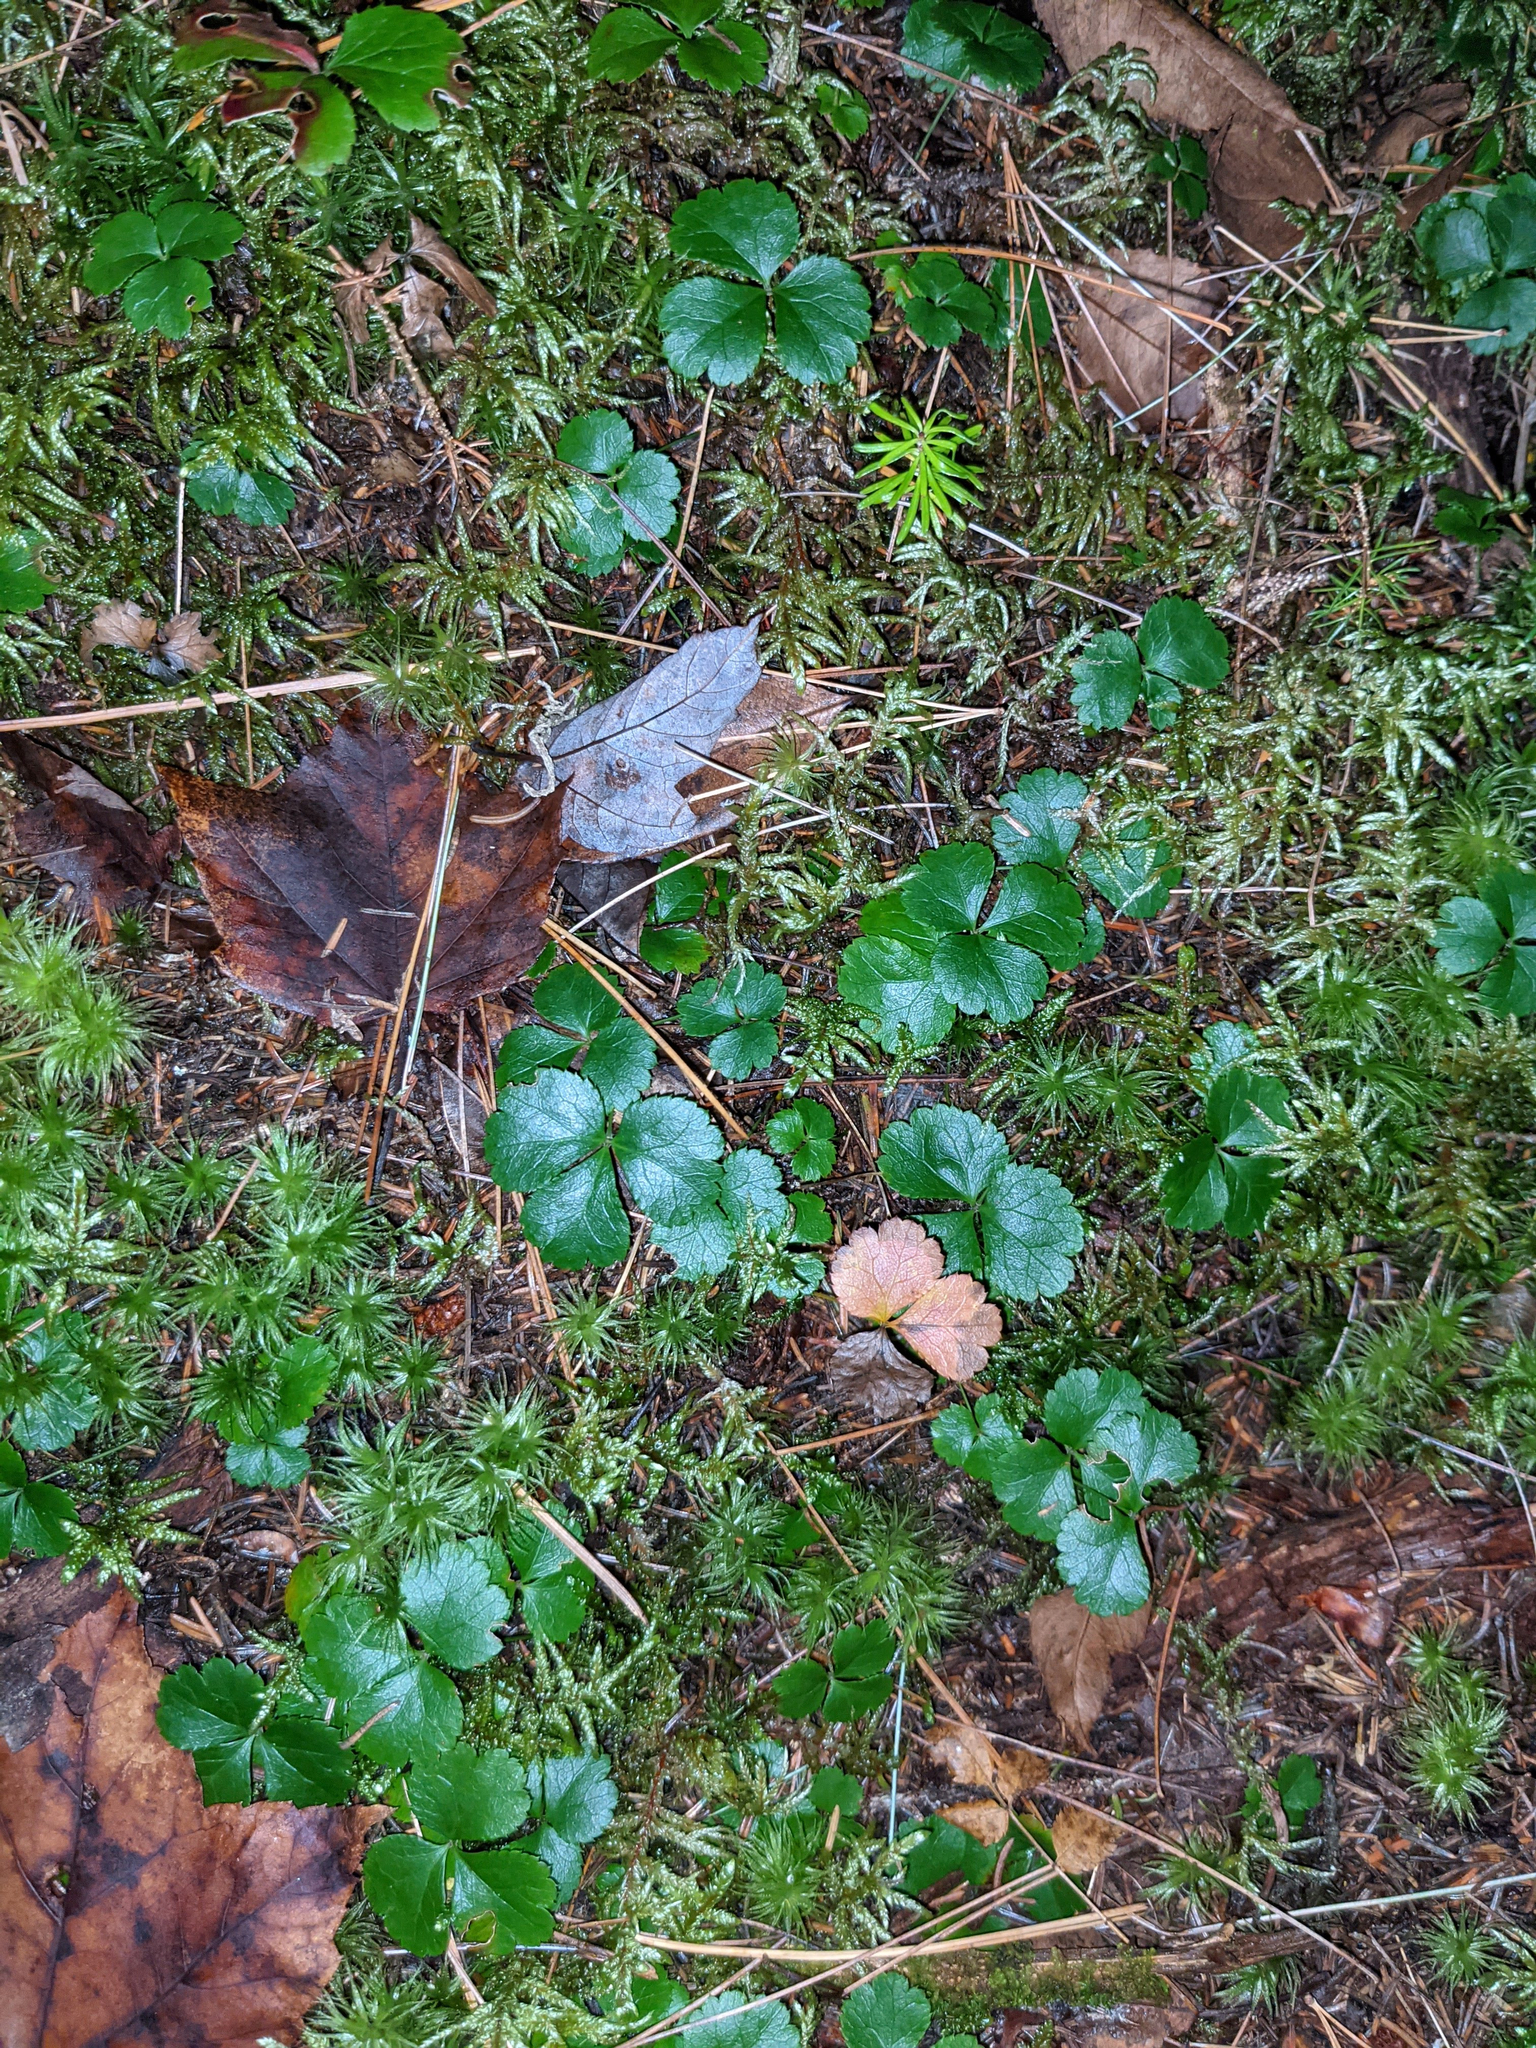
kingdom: Plantae
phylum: Tracheophyta
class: Magnoliopsida
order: Ranunculales
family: Ranunculaceae
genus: Coptis
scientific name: Coptis trifolia
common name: Canker-root
